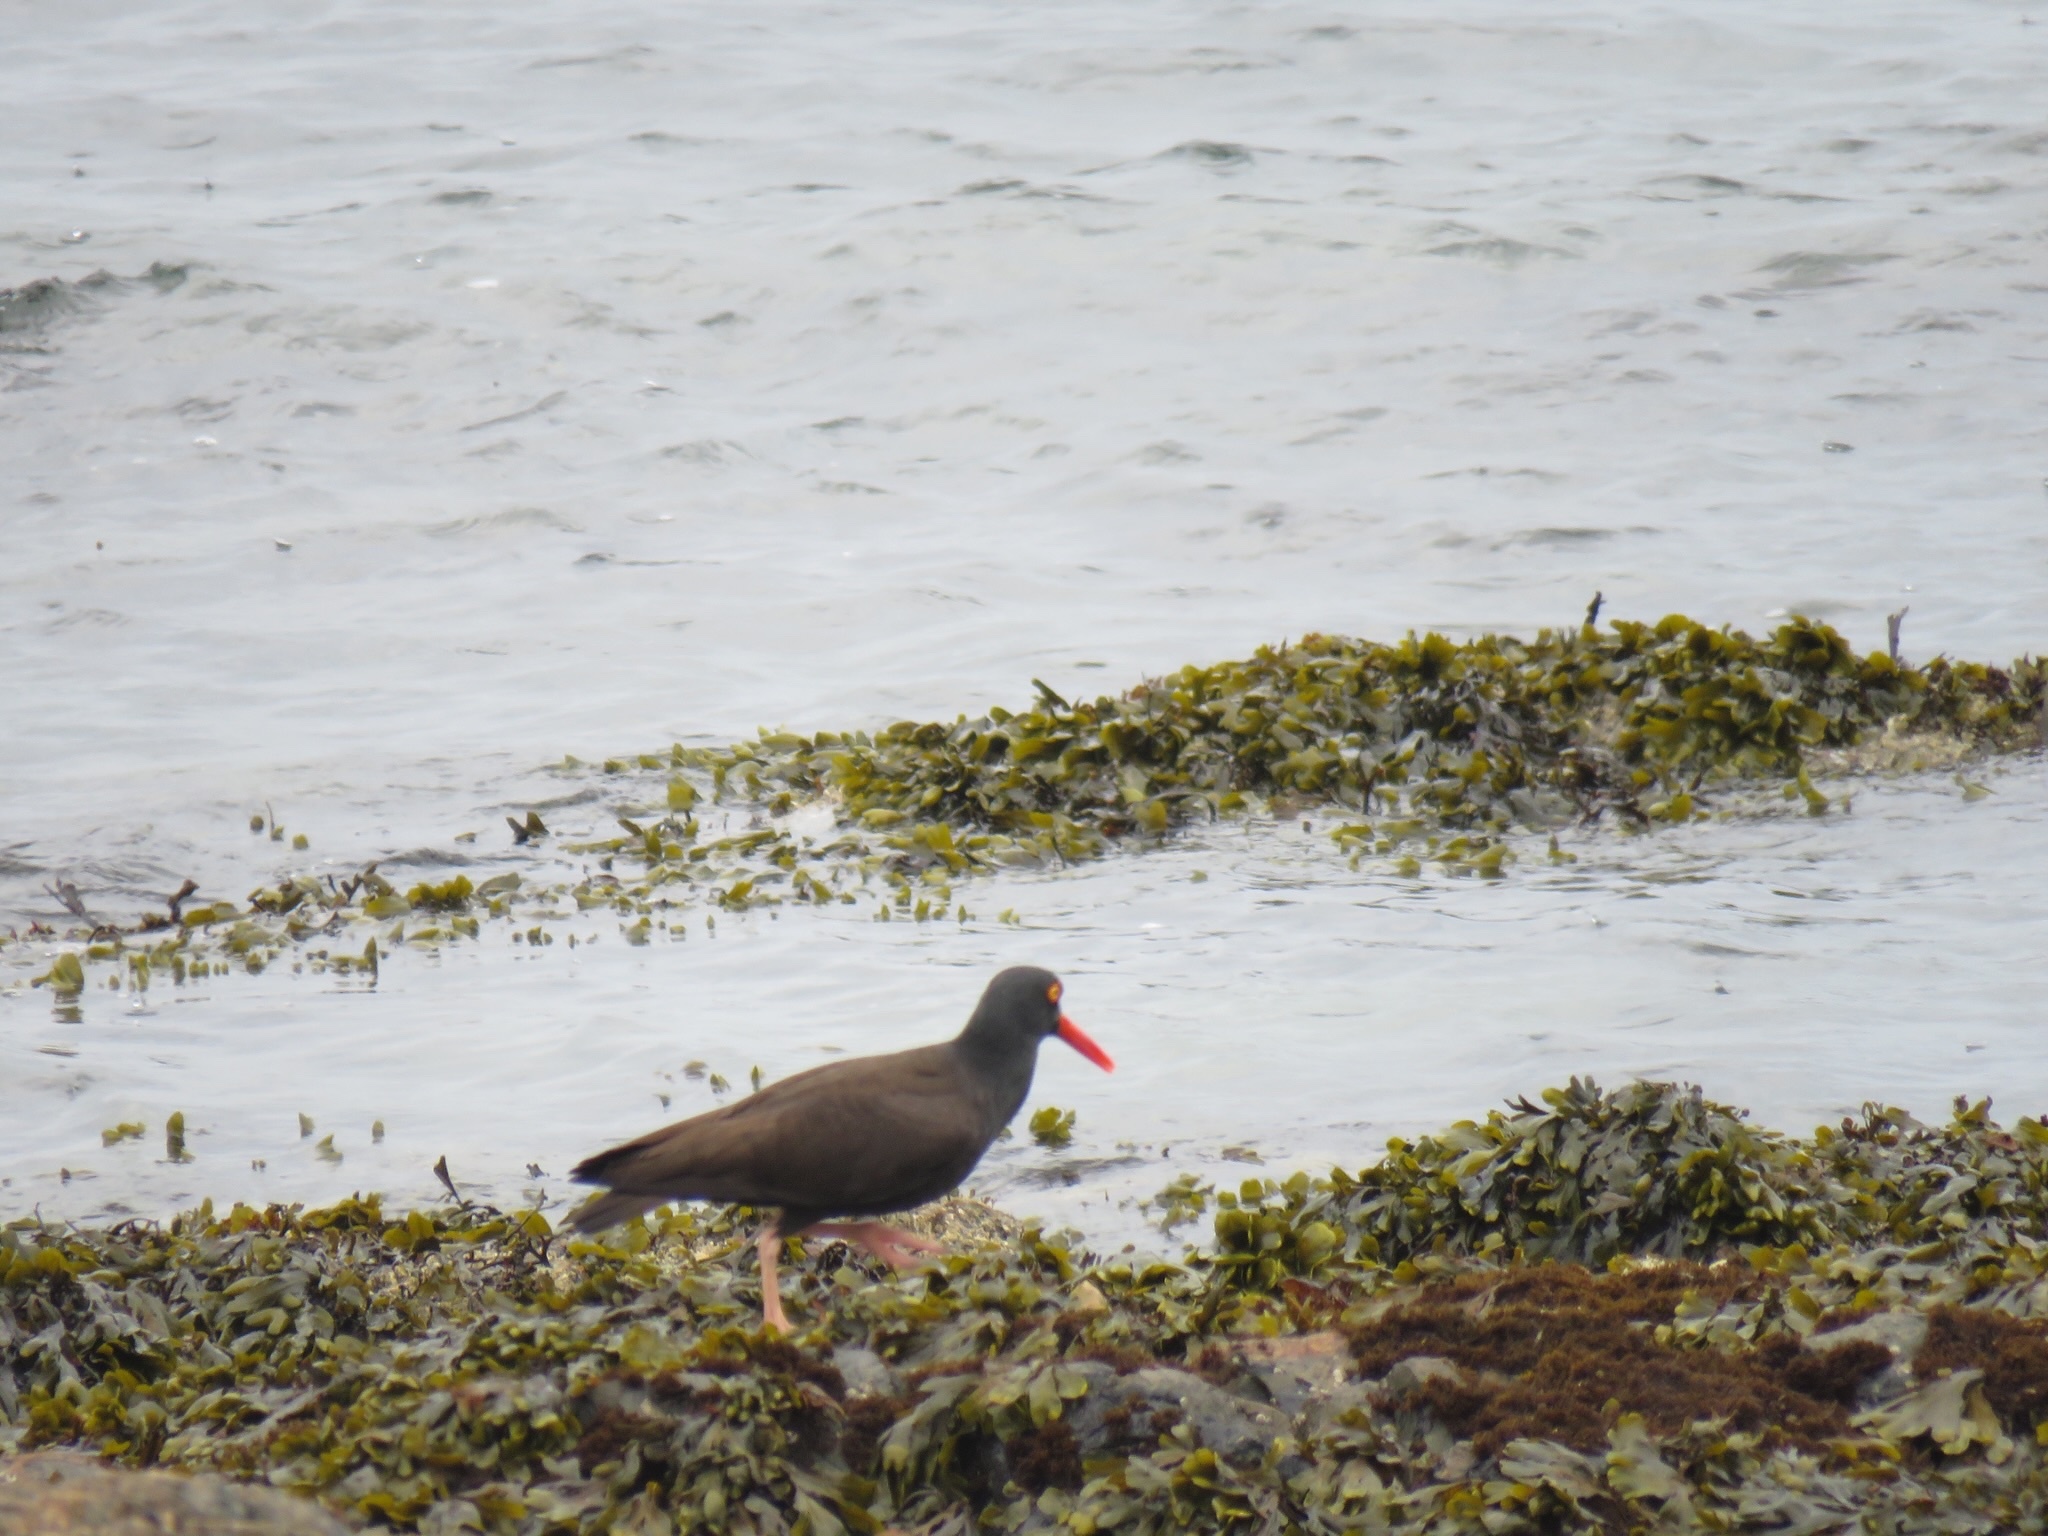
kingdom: Animalia
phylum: Chordata
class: Aves
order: Charadriiformes
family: Haematopodidae
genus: Haematopus
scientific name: Haematopus bachmani
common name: Black oystercatcher
